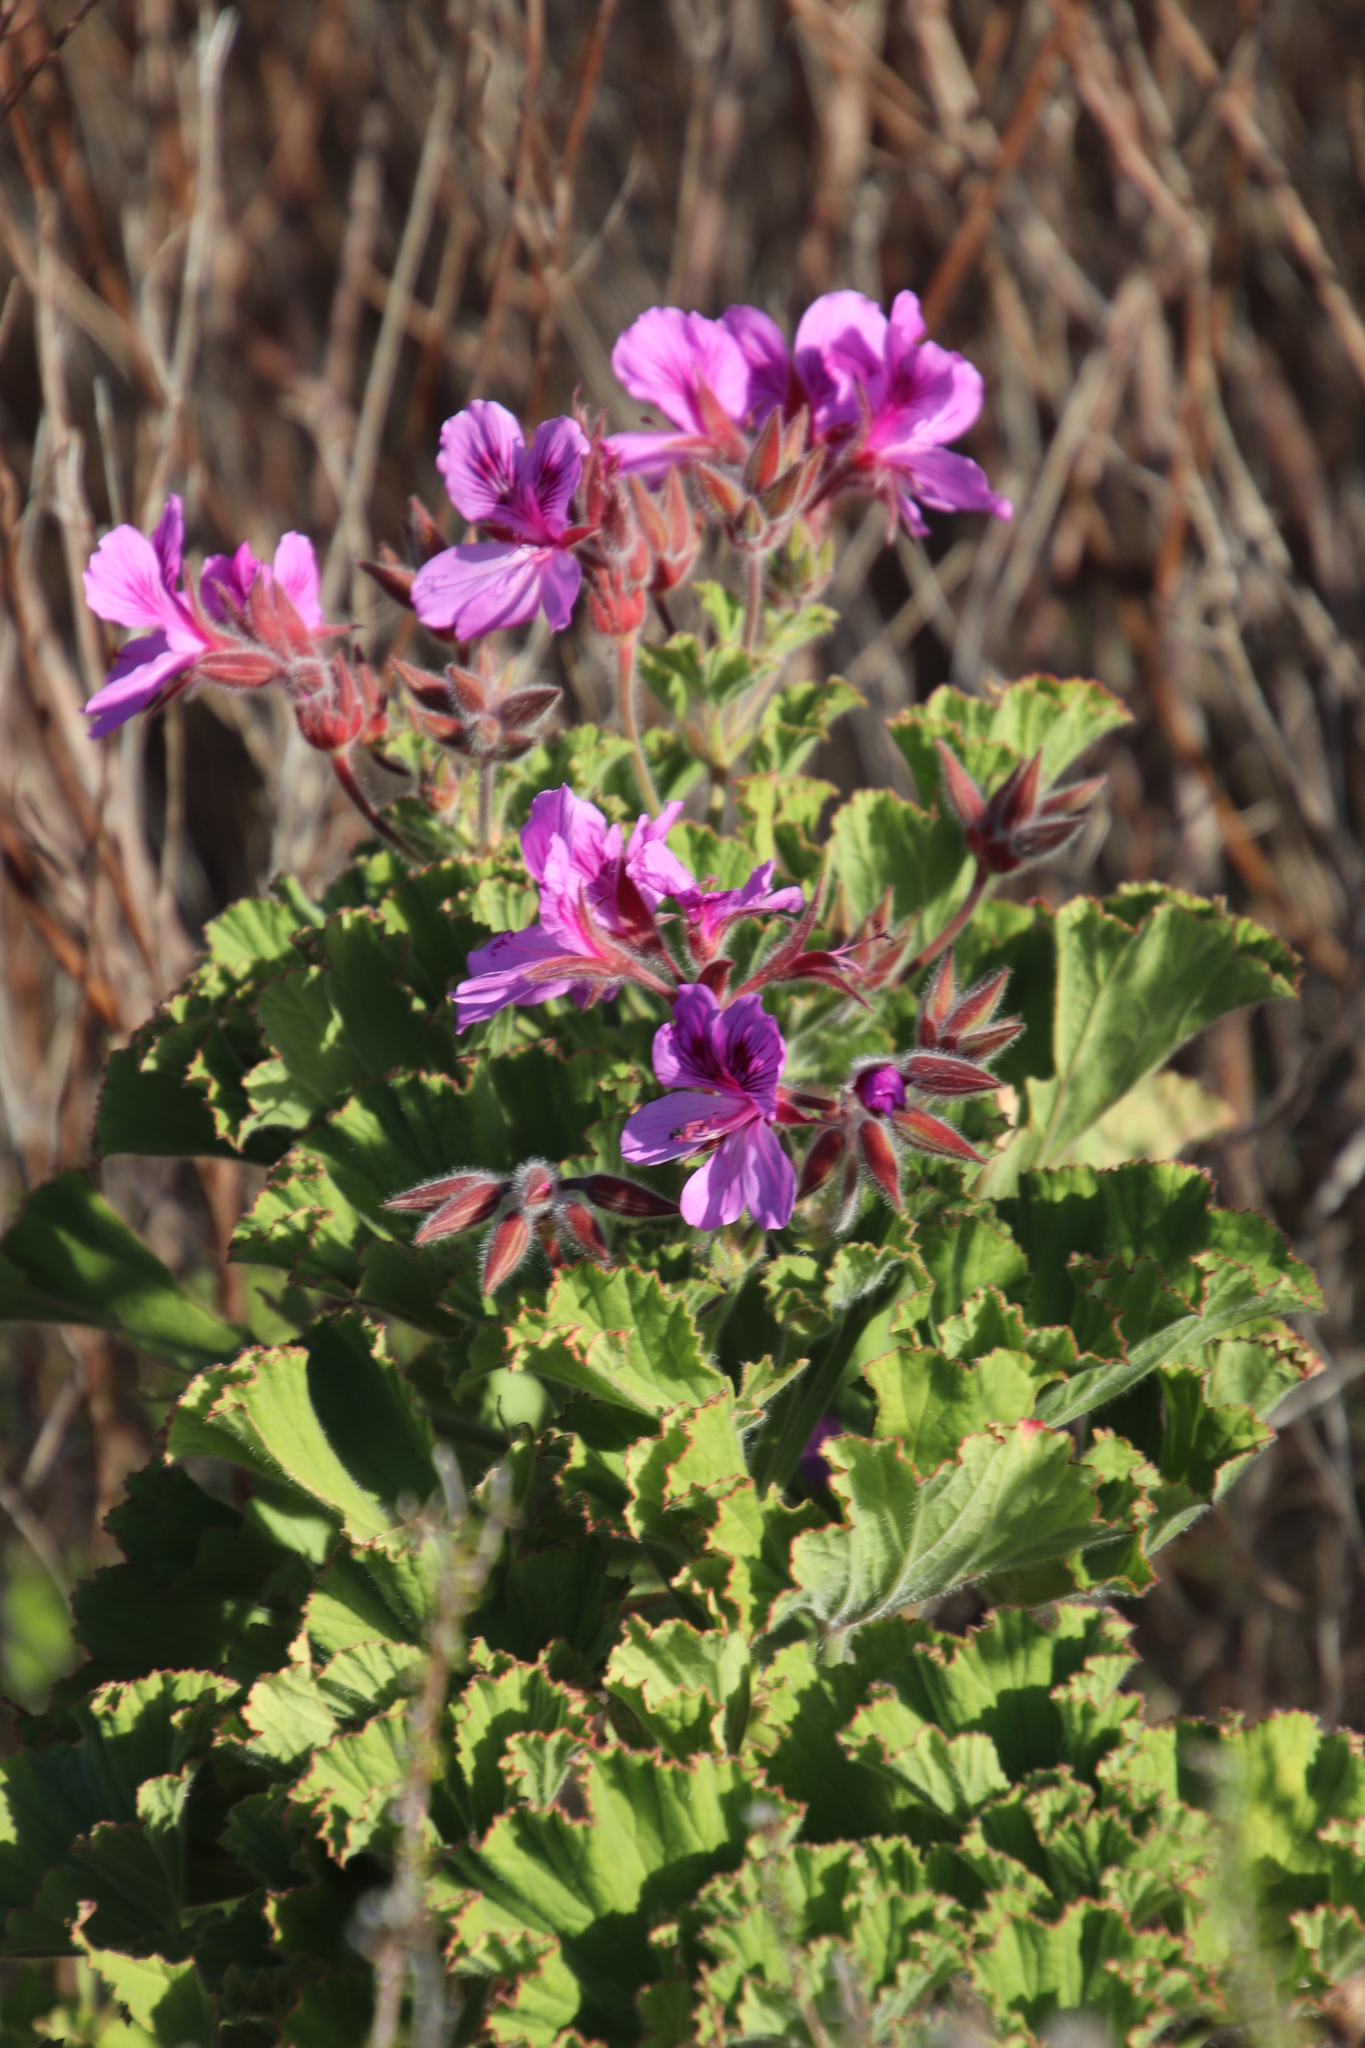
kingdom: Plantae
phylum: Tracheophyta
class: Magnoliopsida
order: Geraniales
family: Geraniaceae
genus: Pelargonium
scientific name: Pelargonium cucullatum
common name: Tree pelargonium
